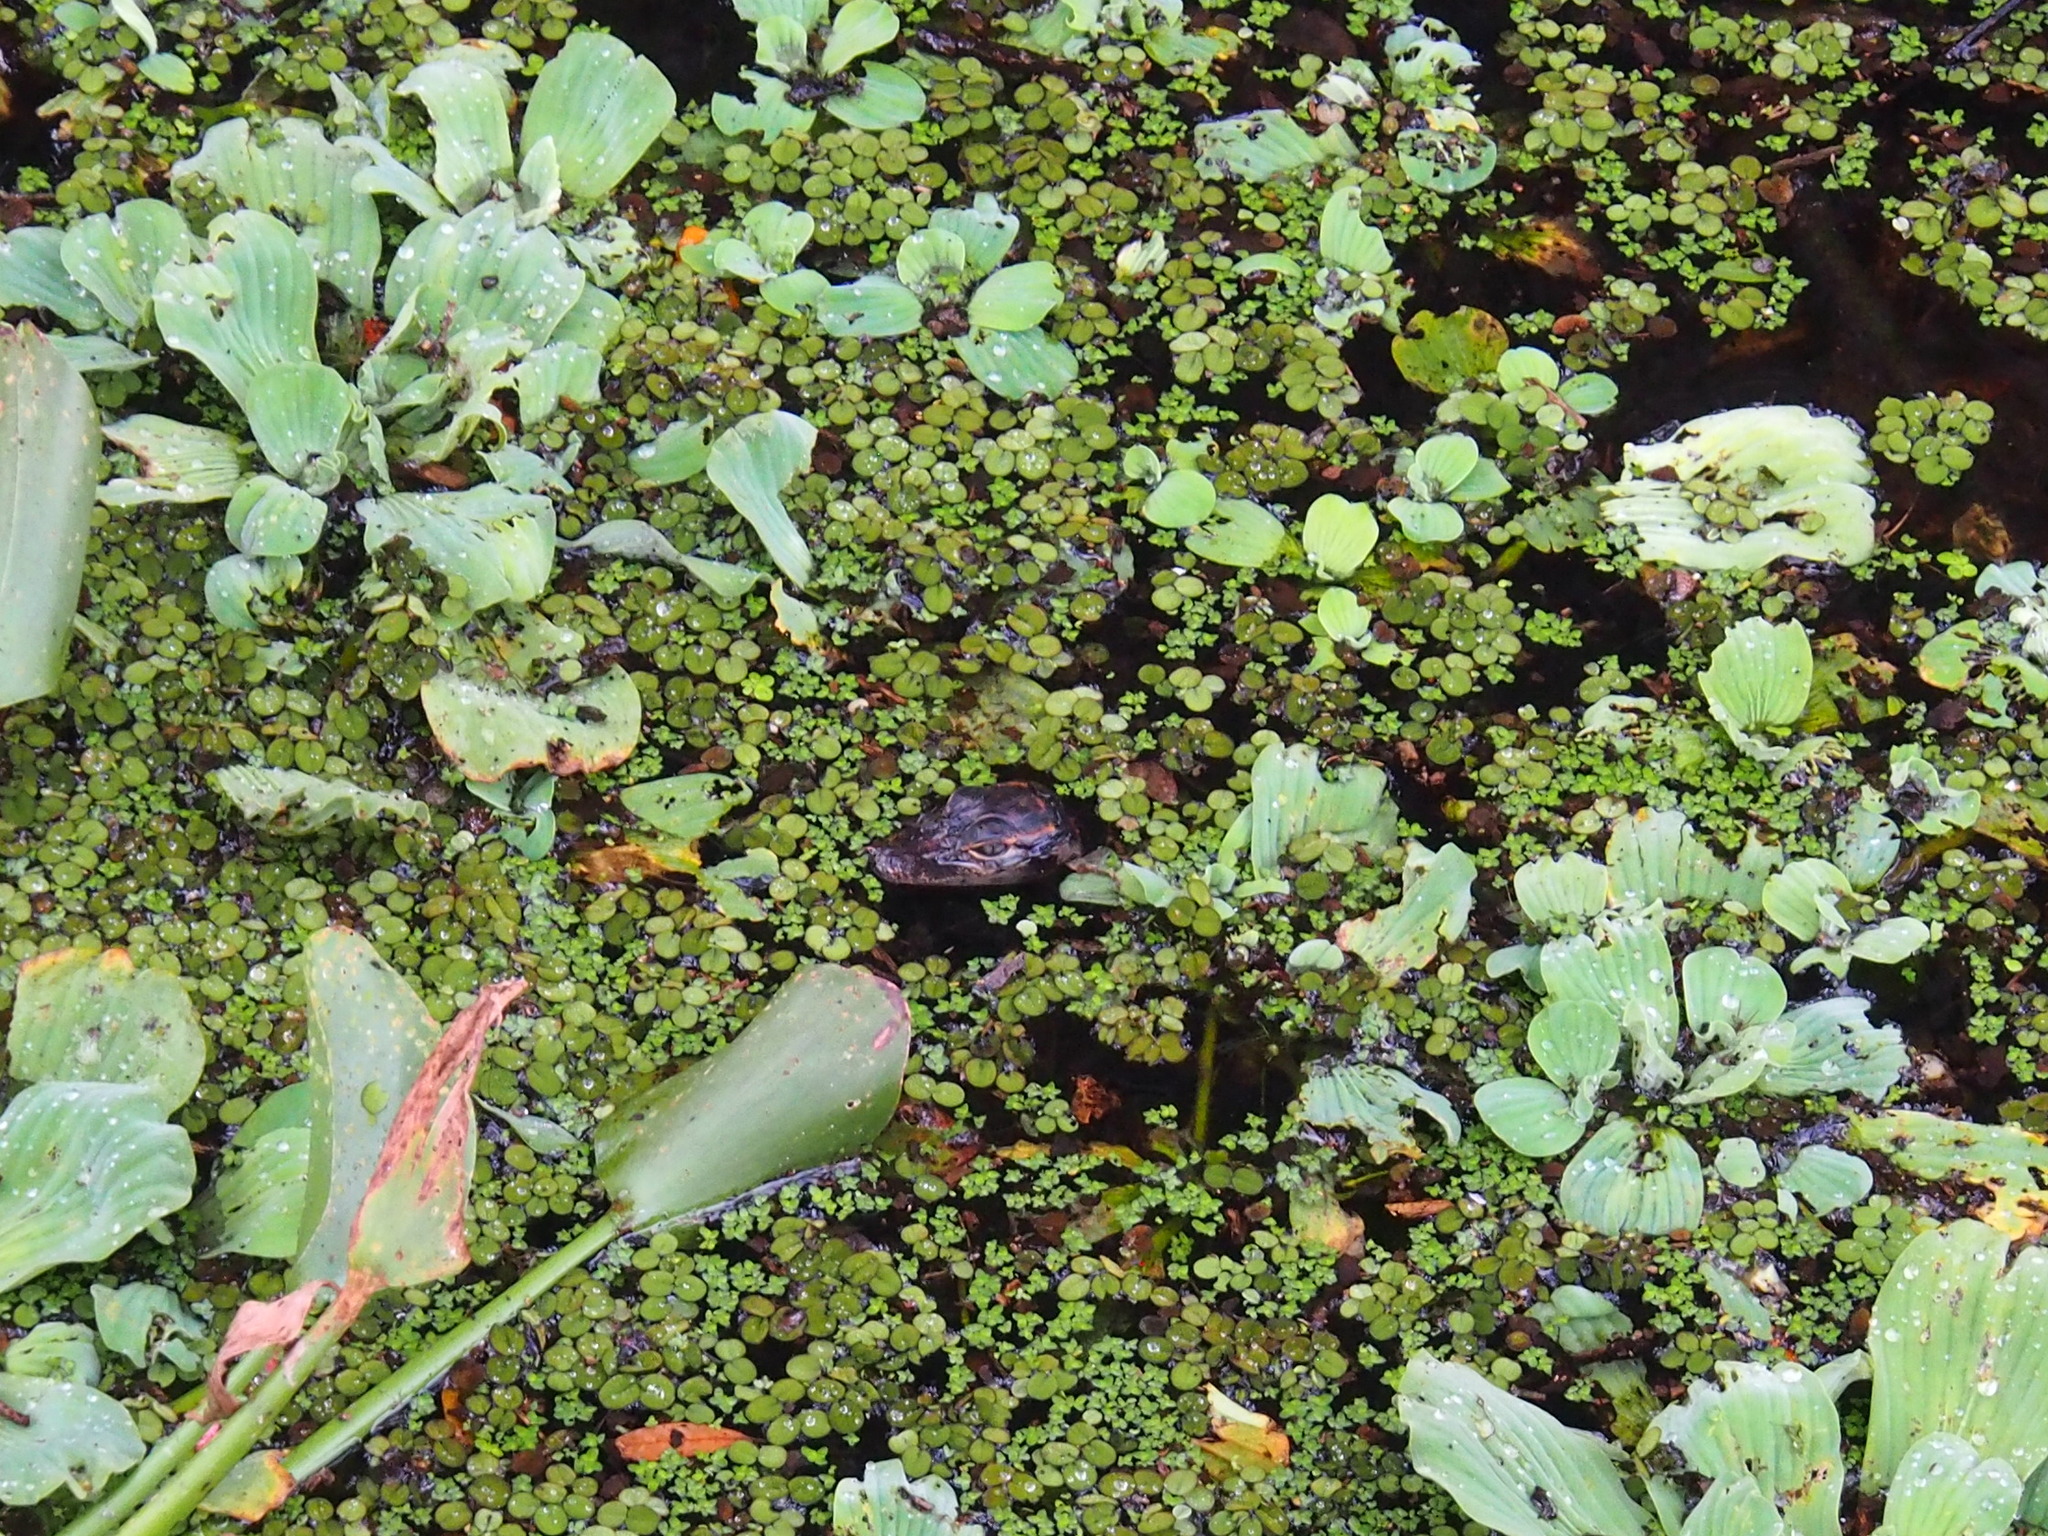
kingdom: Animalia
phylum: Chordata
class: Crocodylia
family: Alligatoridae
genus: Alligator
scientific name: Alligator mississippiensis
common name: American alligator
